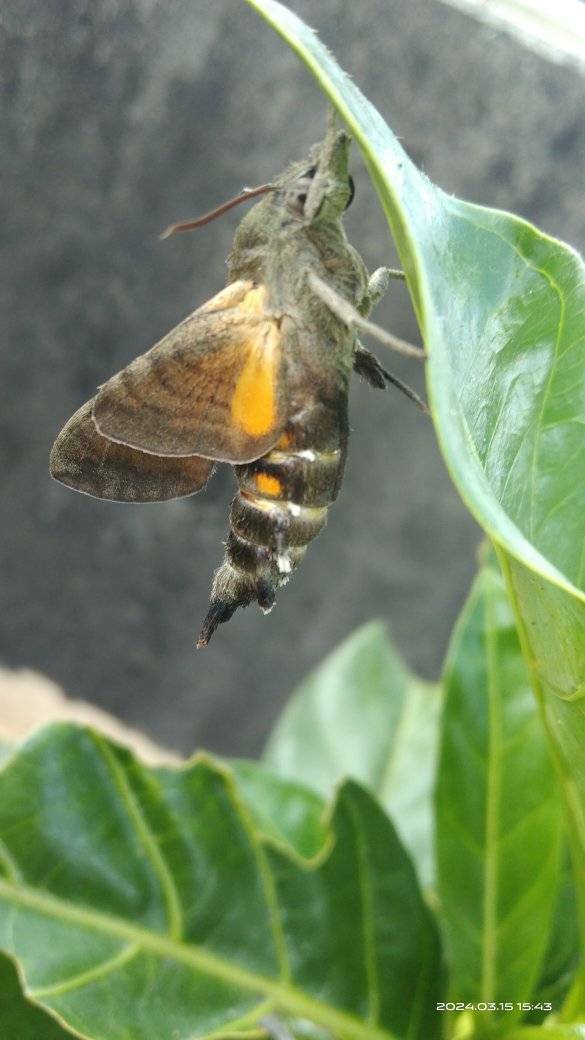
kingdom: Animalia
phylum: Arthropoda
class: Insecta
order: Lepidoptera
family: Sphingidae
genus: Macroglossum
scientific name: Macroglossum sitiene
